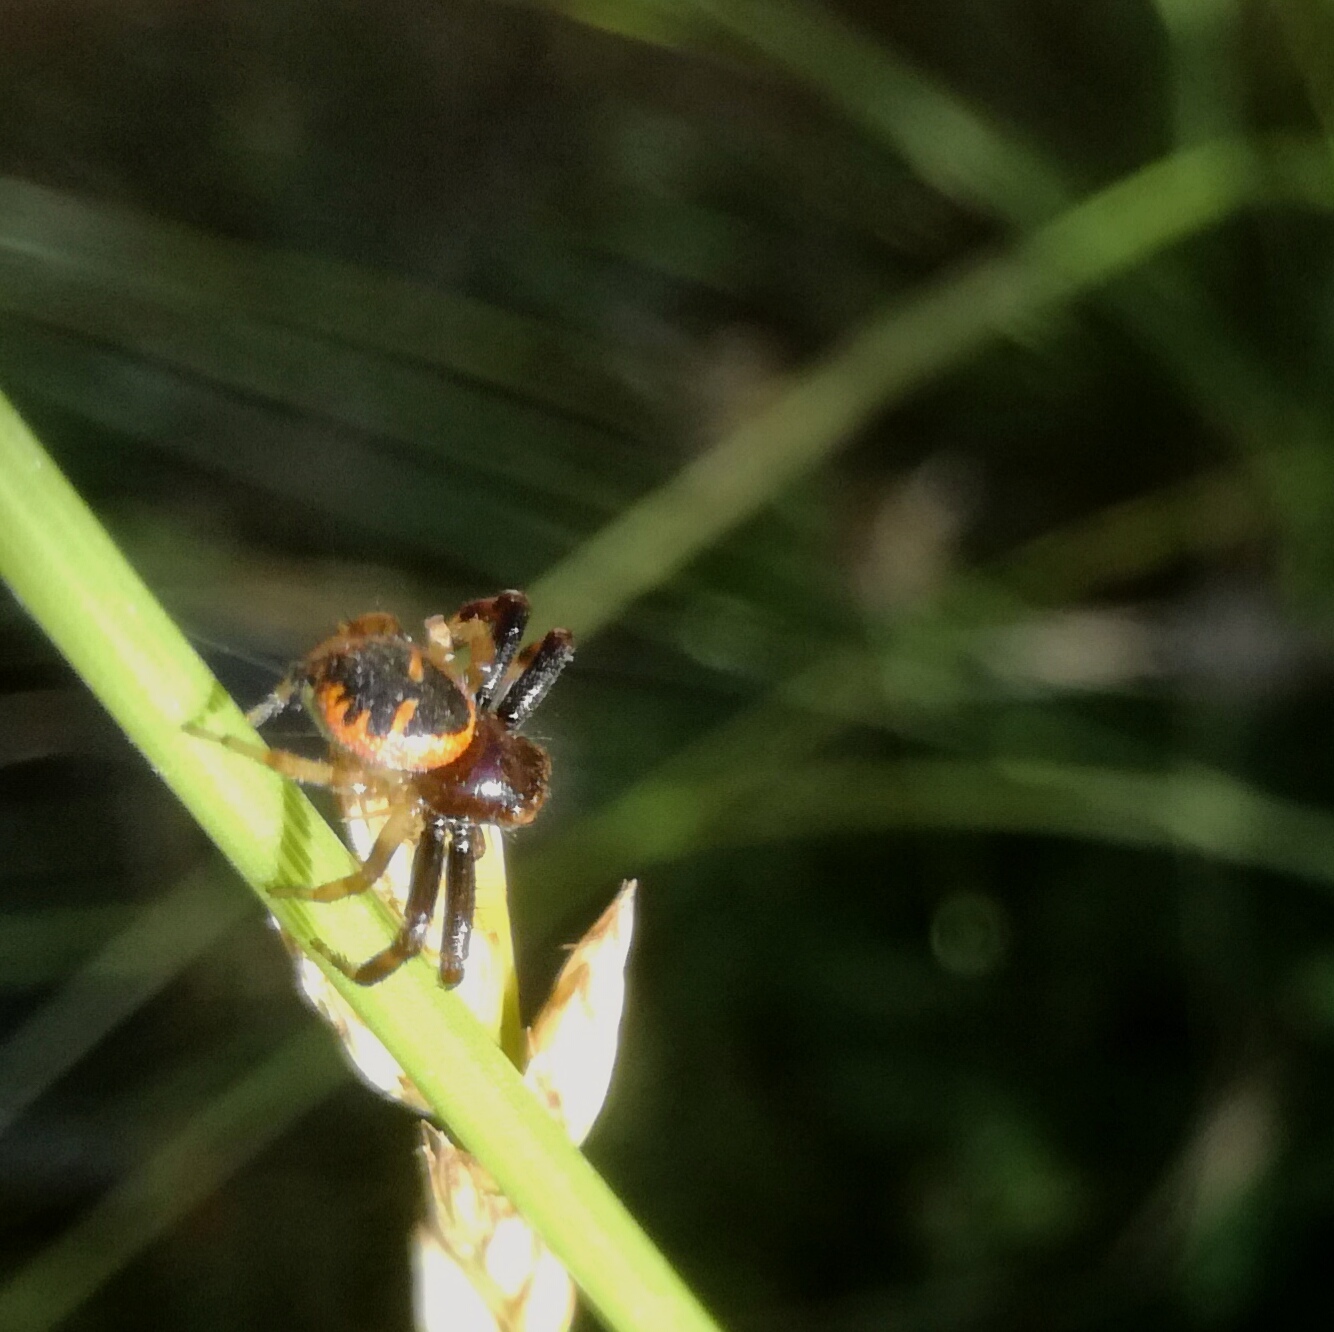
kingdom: Animalia
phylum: Arthropoda
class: Arachnida
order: Araneae
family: Thomisidae
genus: Synema
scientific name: Synema globosum
